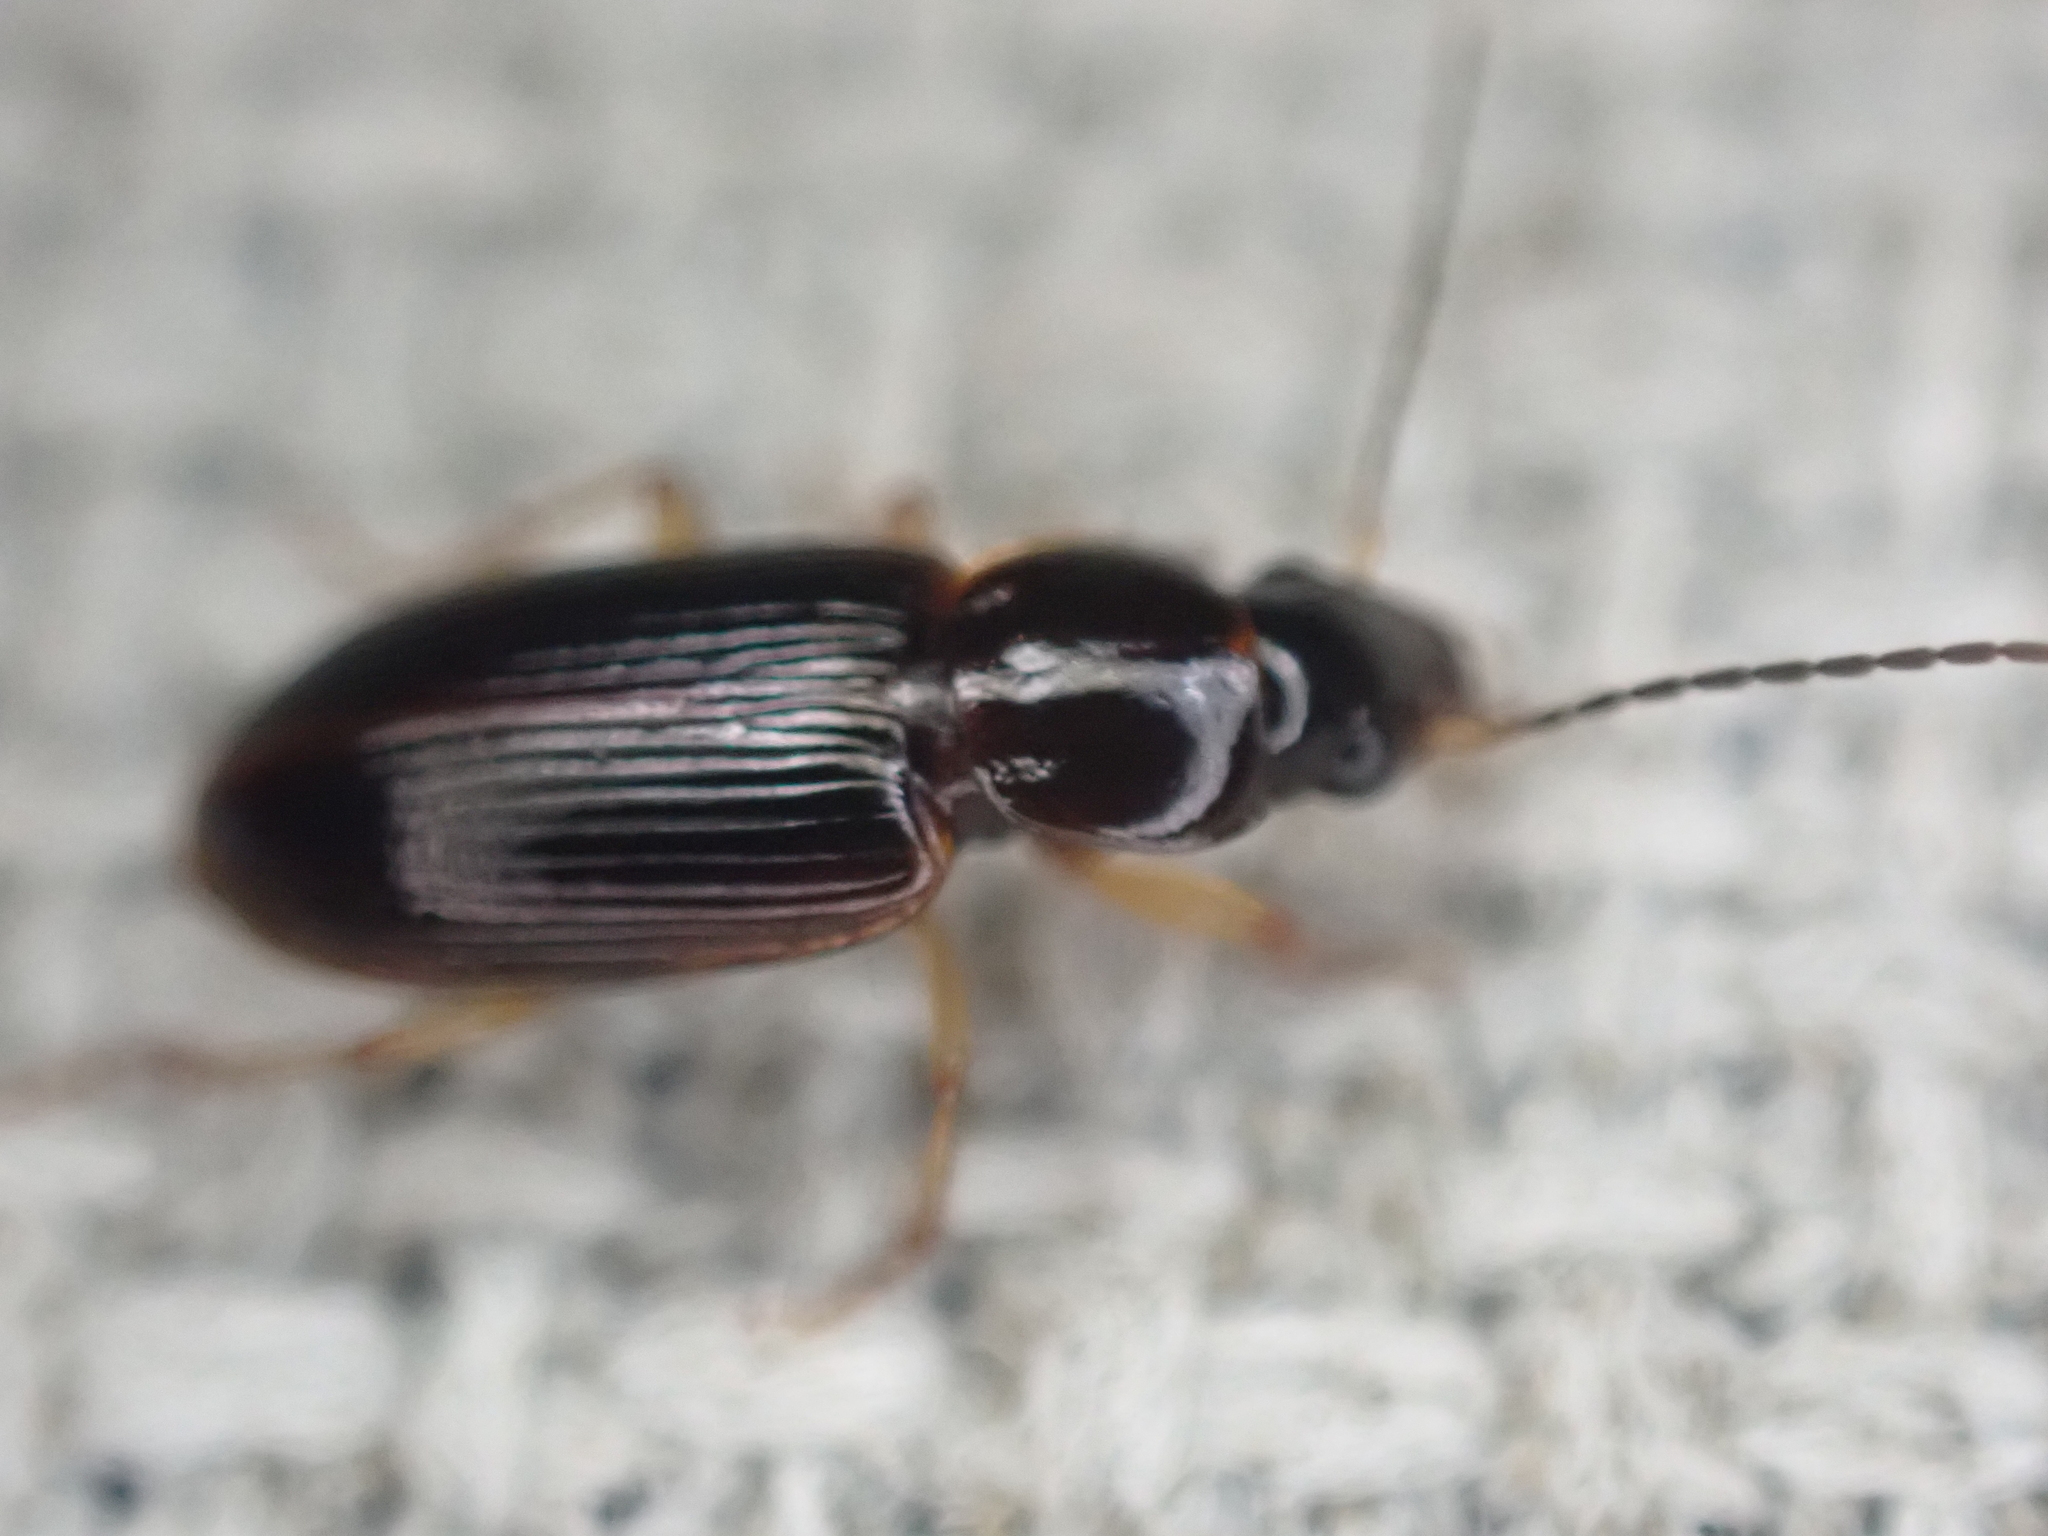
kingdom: Animalia
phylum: Arthropoda
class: Insecta
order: Coleoptera
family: Carabidae
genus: Stenolophus
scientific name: Stenolophus ochropezus
